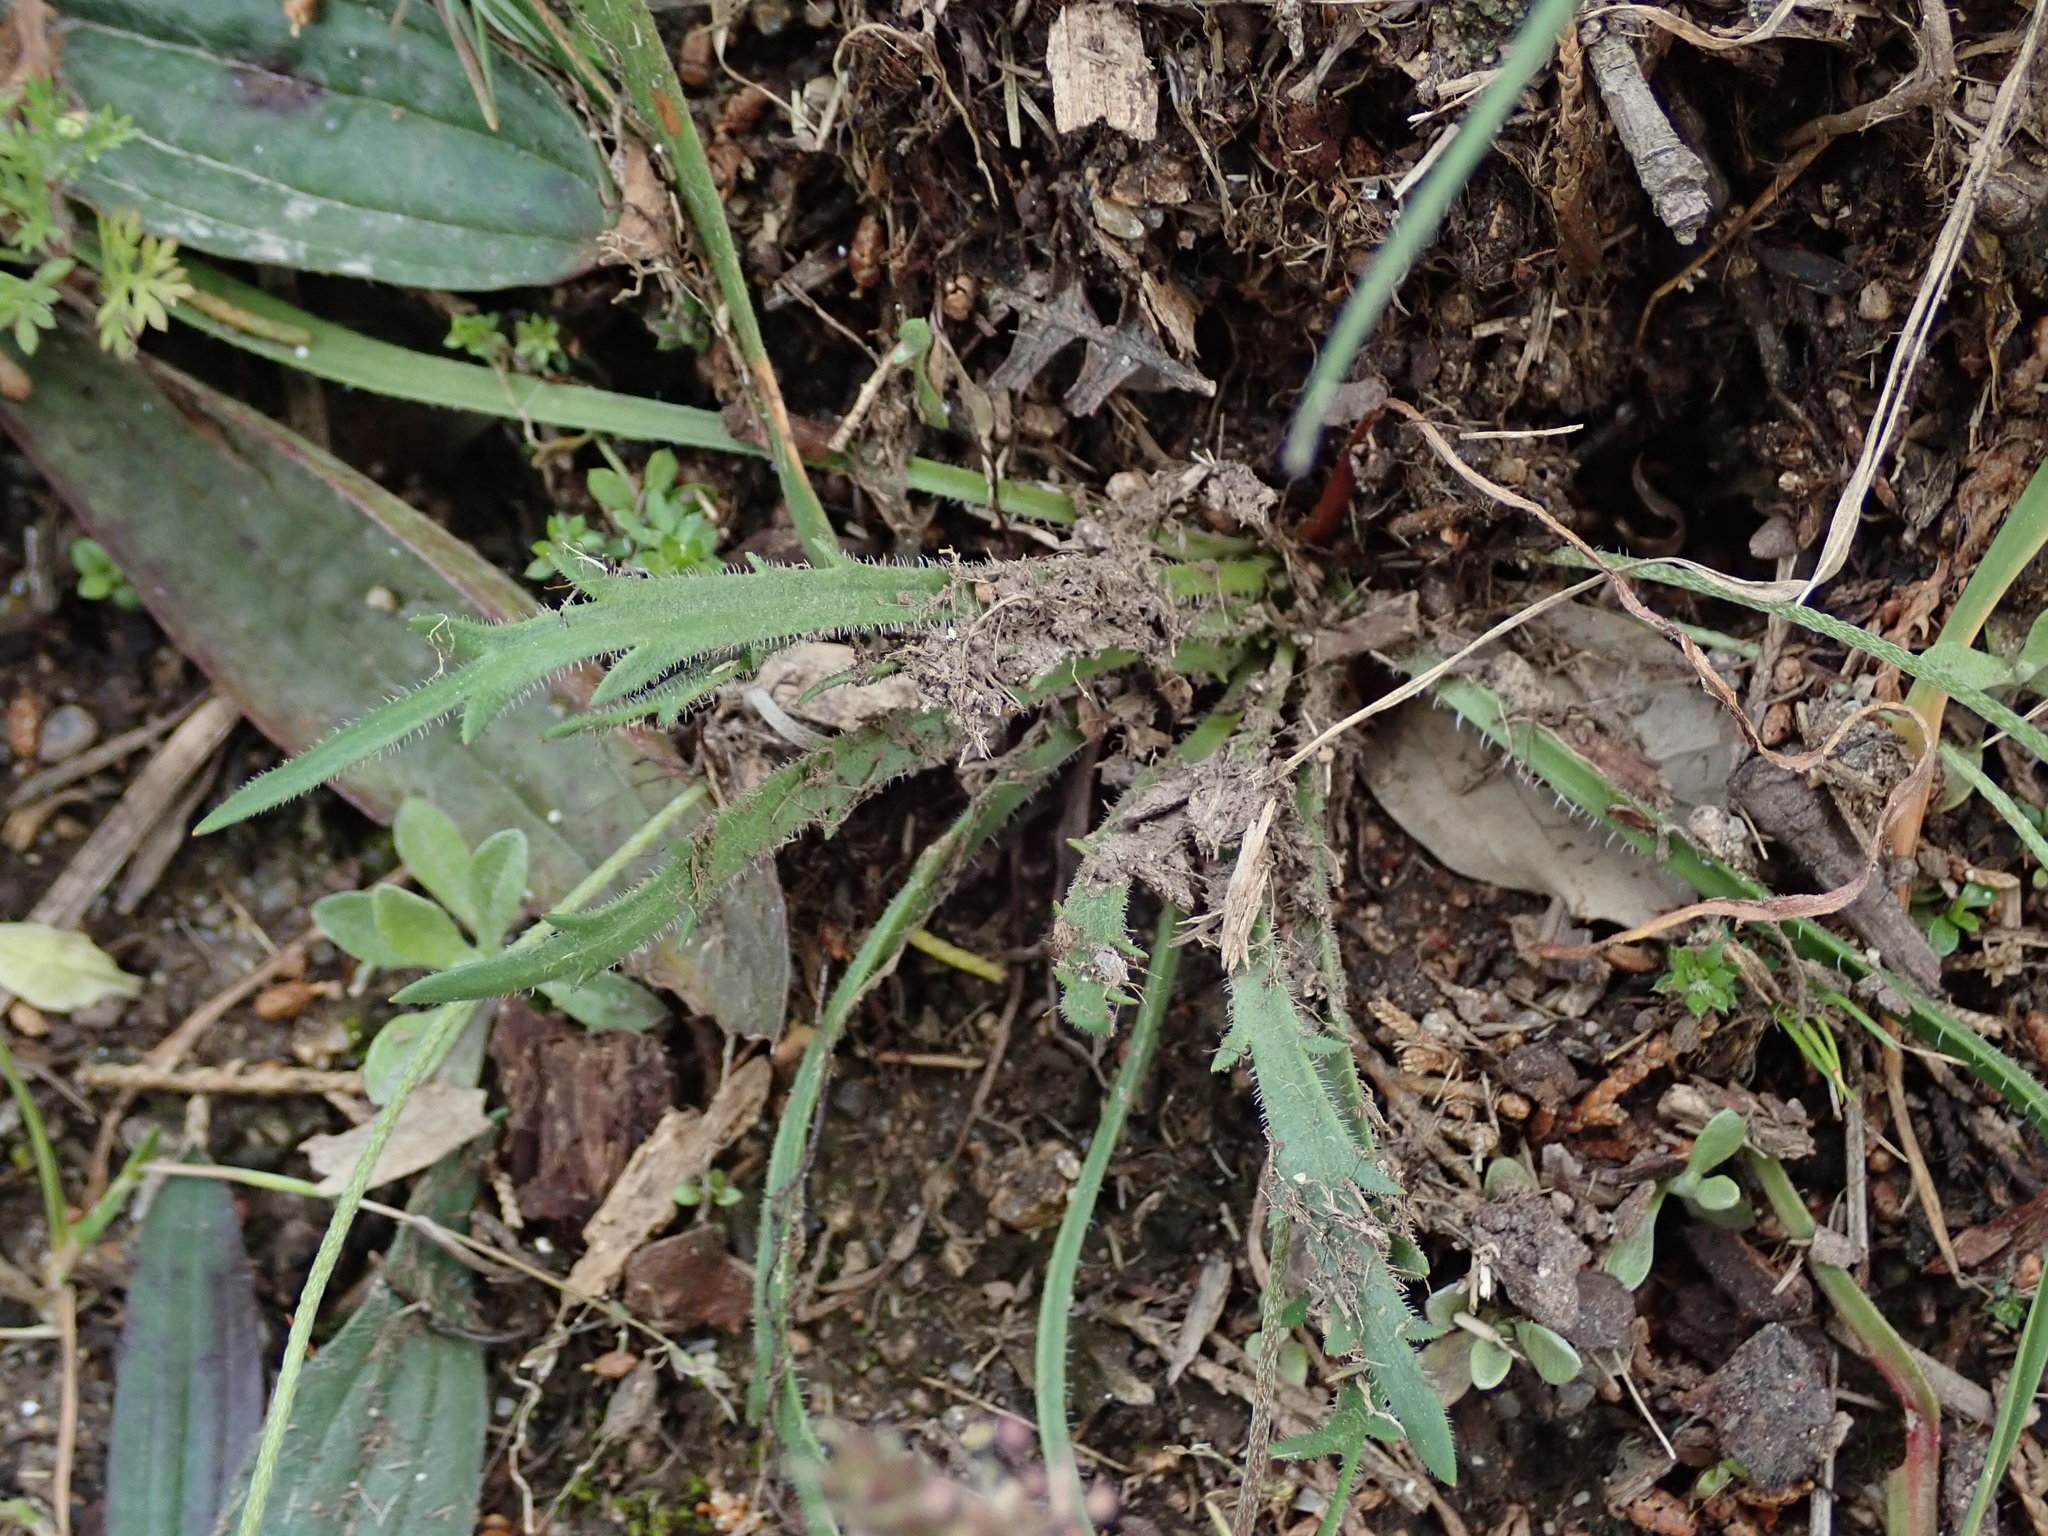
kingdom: Plantae
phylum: Tracheophyta
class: Magnoliopsida
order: Lamiales
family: Plantaginaceae
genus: Plantago
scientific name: Plantago coronopus
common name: Buck's-horn plantain
